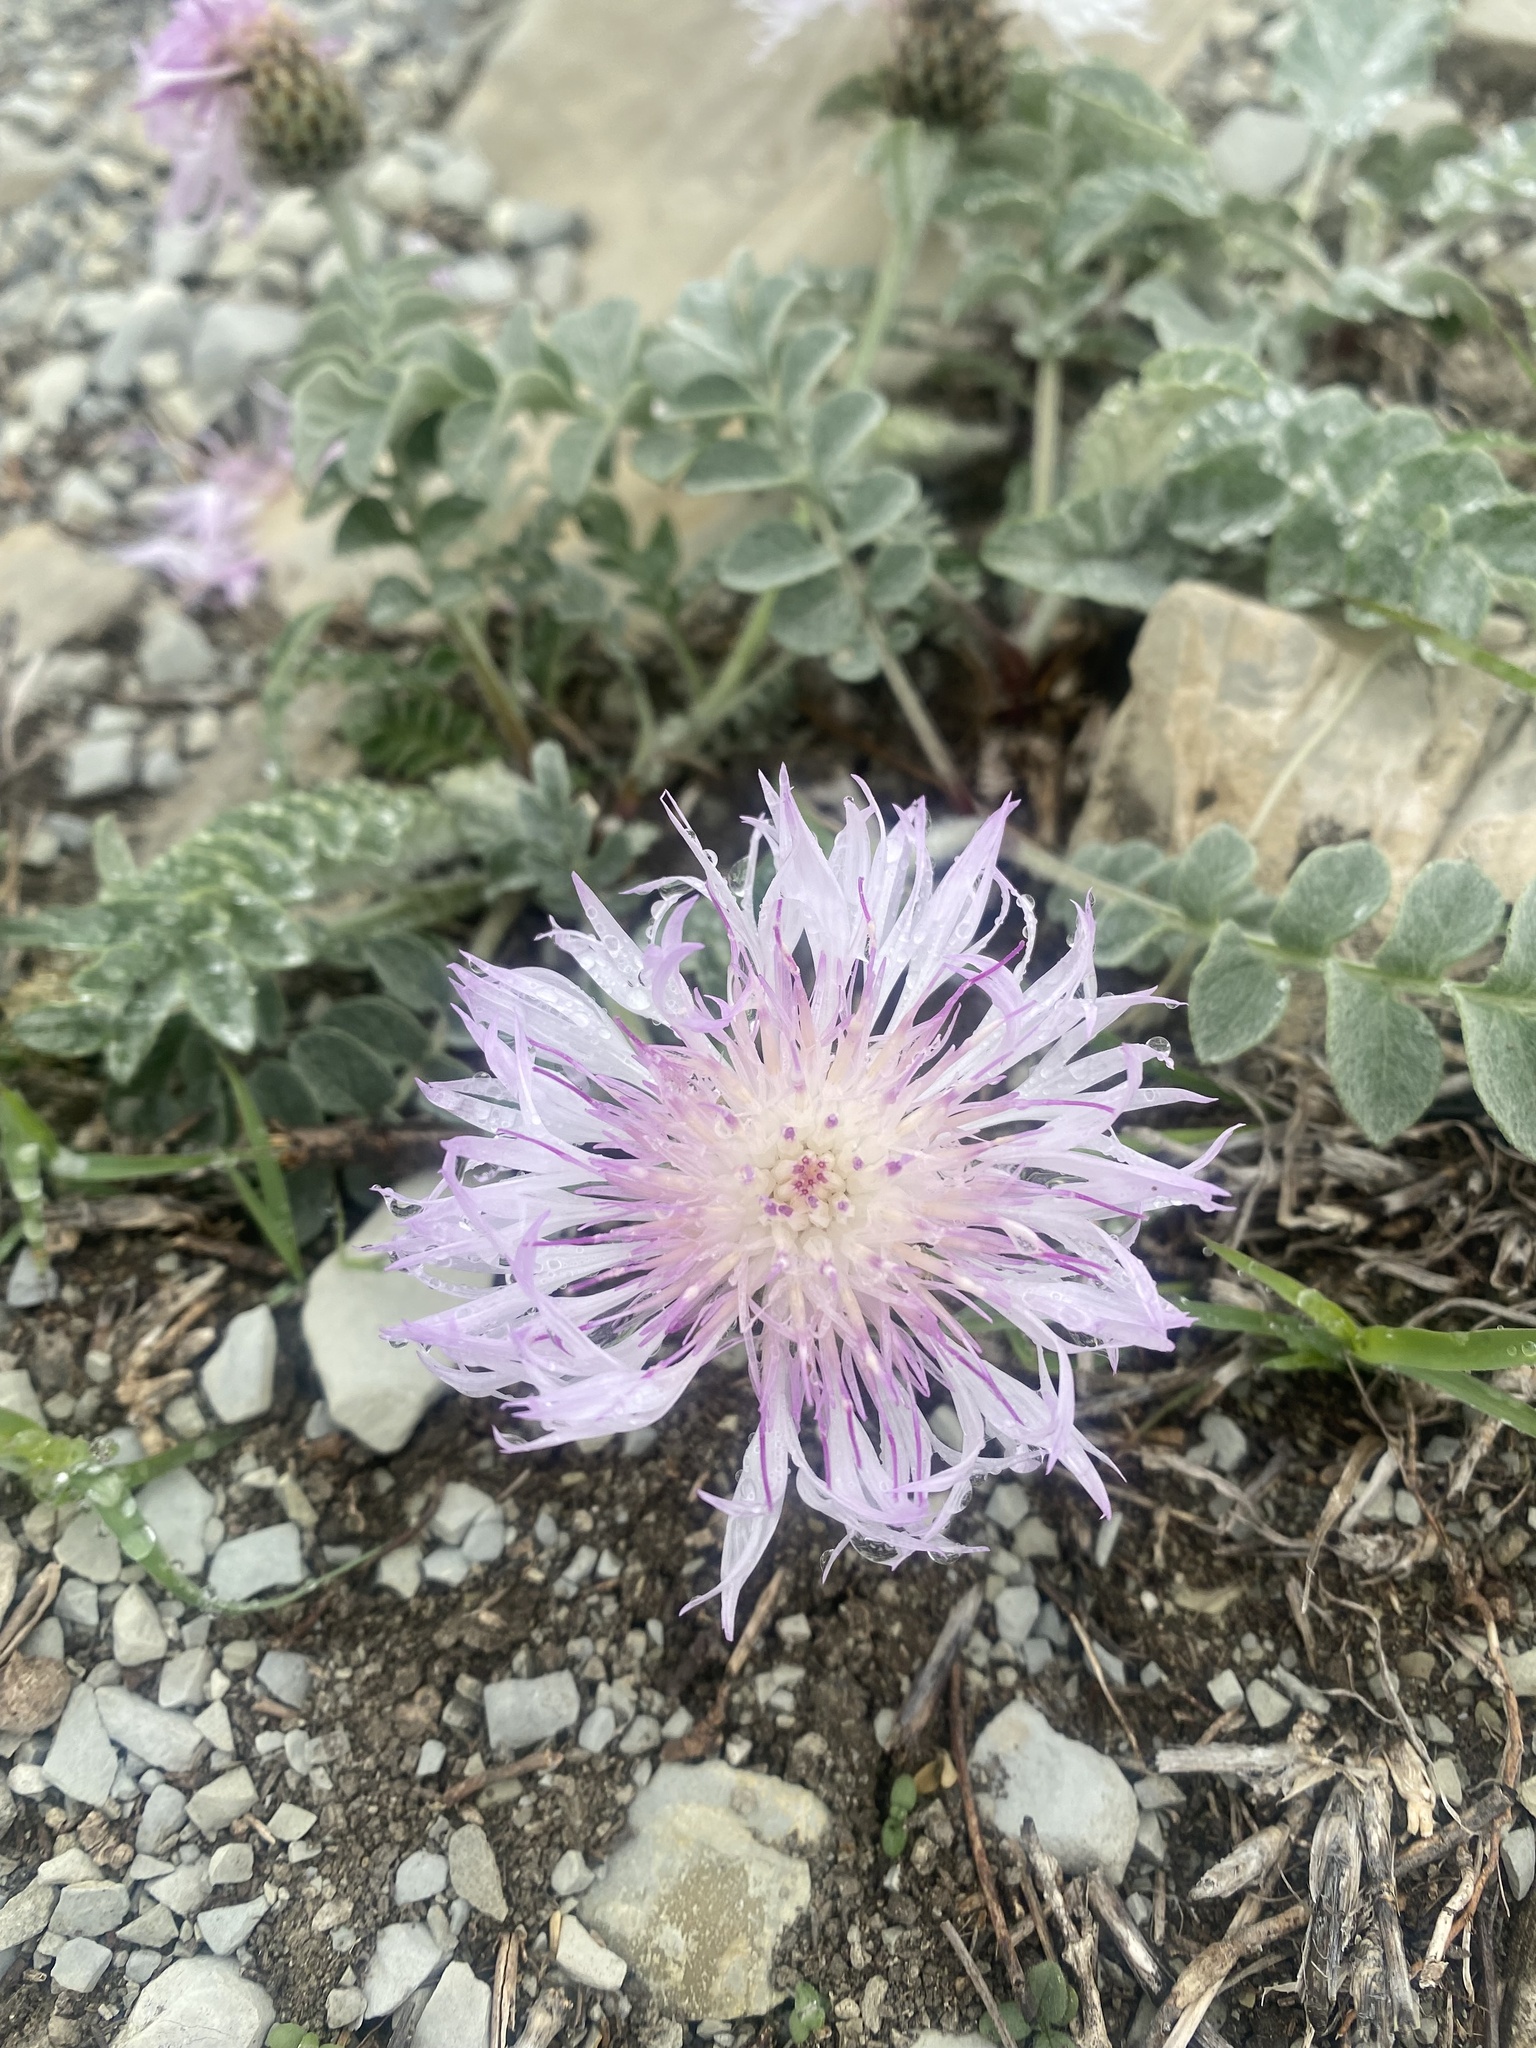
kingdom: Plantae
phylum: Tracheophyta
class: Magnoliopsida
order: Asterales
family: Asteraceae
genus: Psephellus
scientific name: Psephellus declinatus
